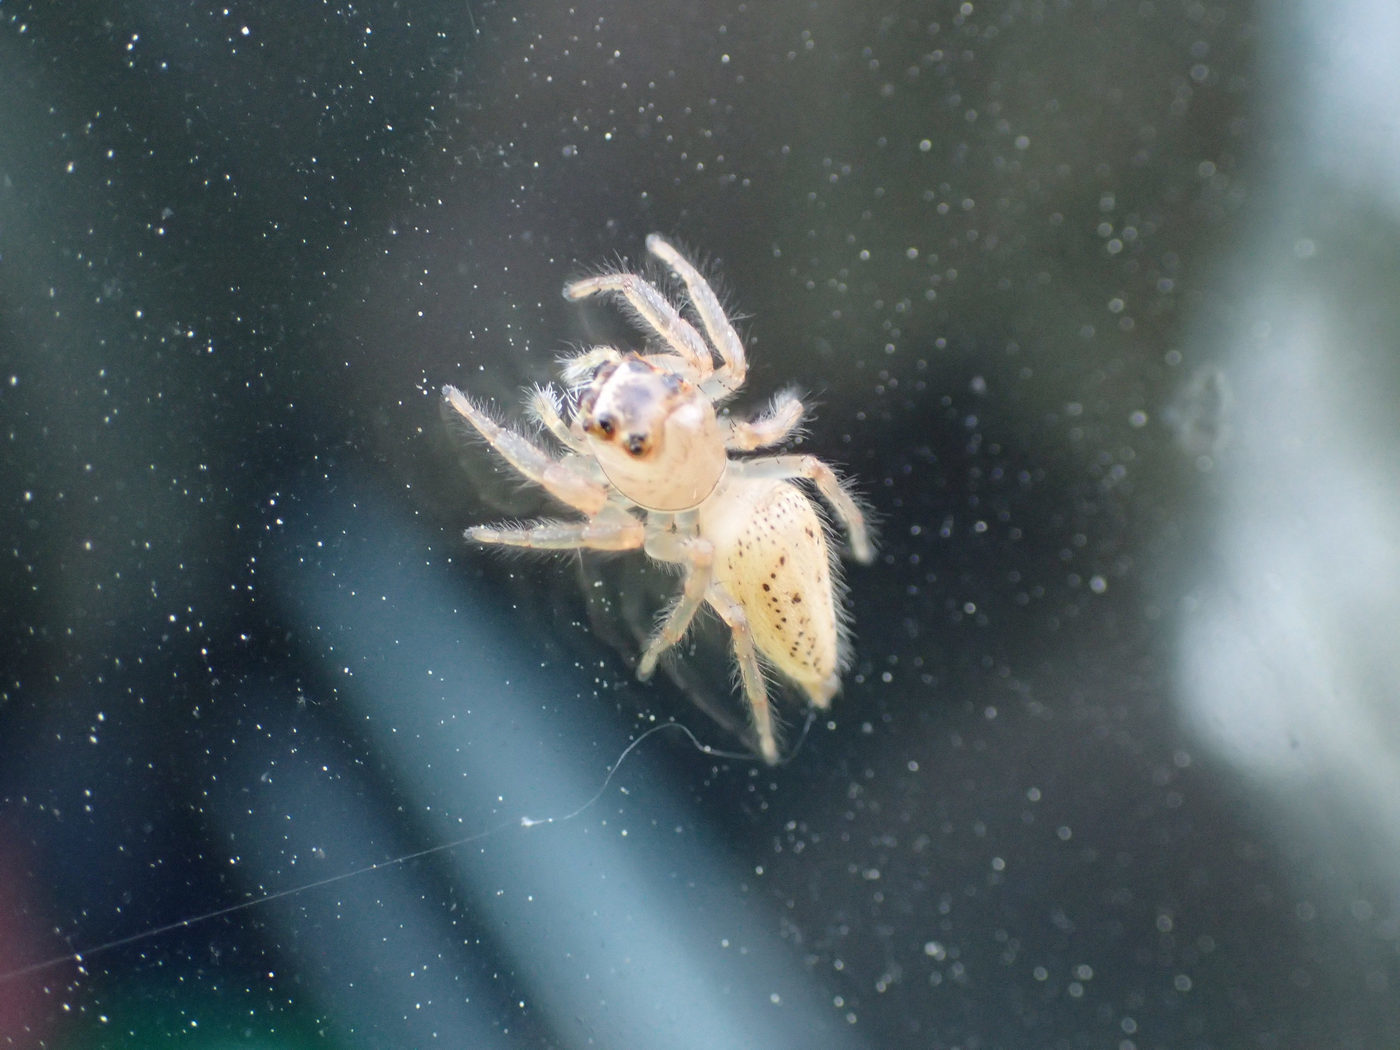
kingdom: Animalia
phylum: Arthropoda
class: Arachnida
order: Araneae
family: Salticidae
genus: Colonus
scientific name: Colonus sylvanus
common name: Jumping spiders
